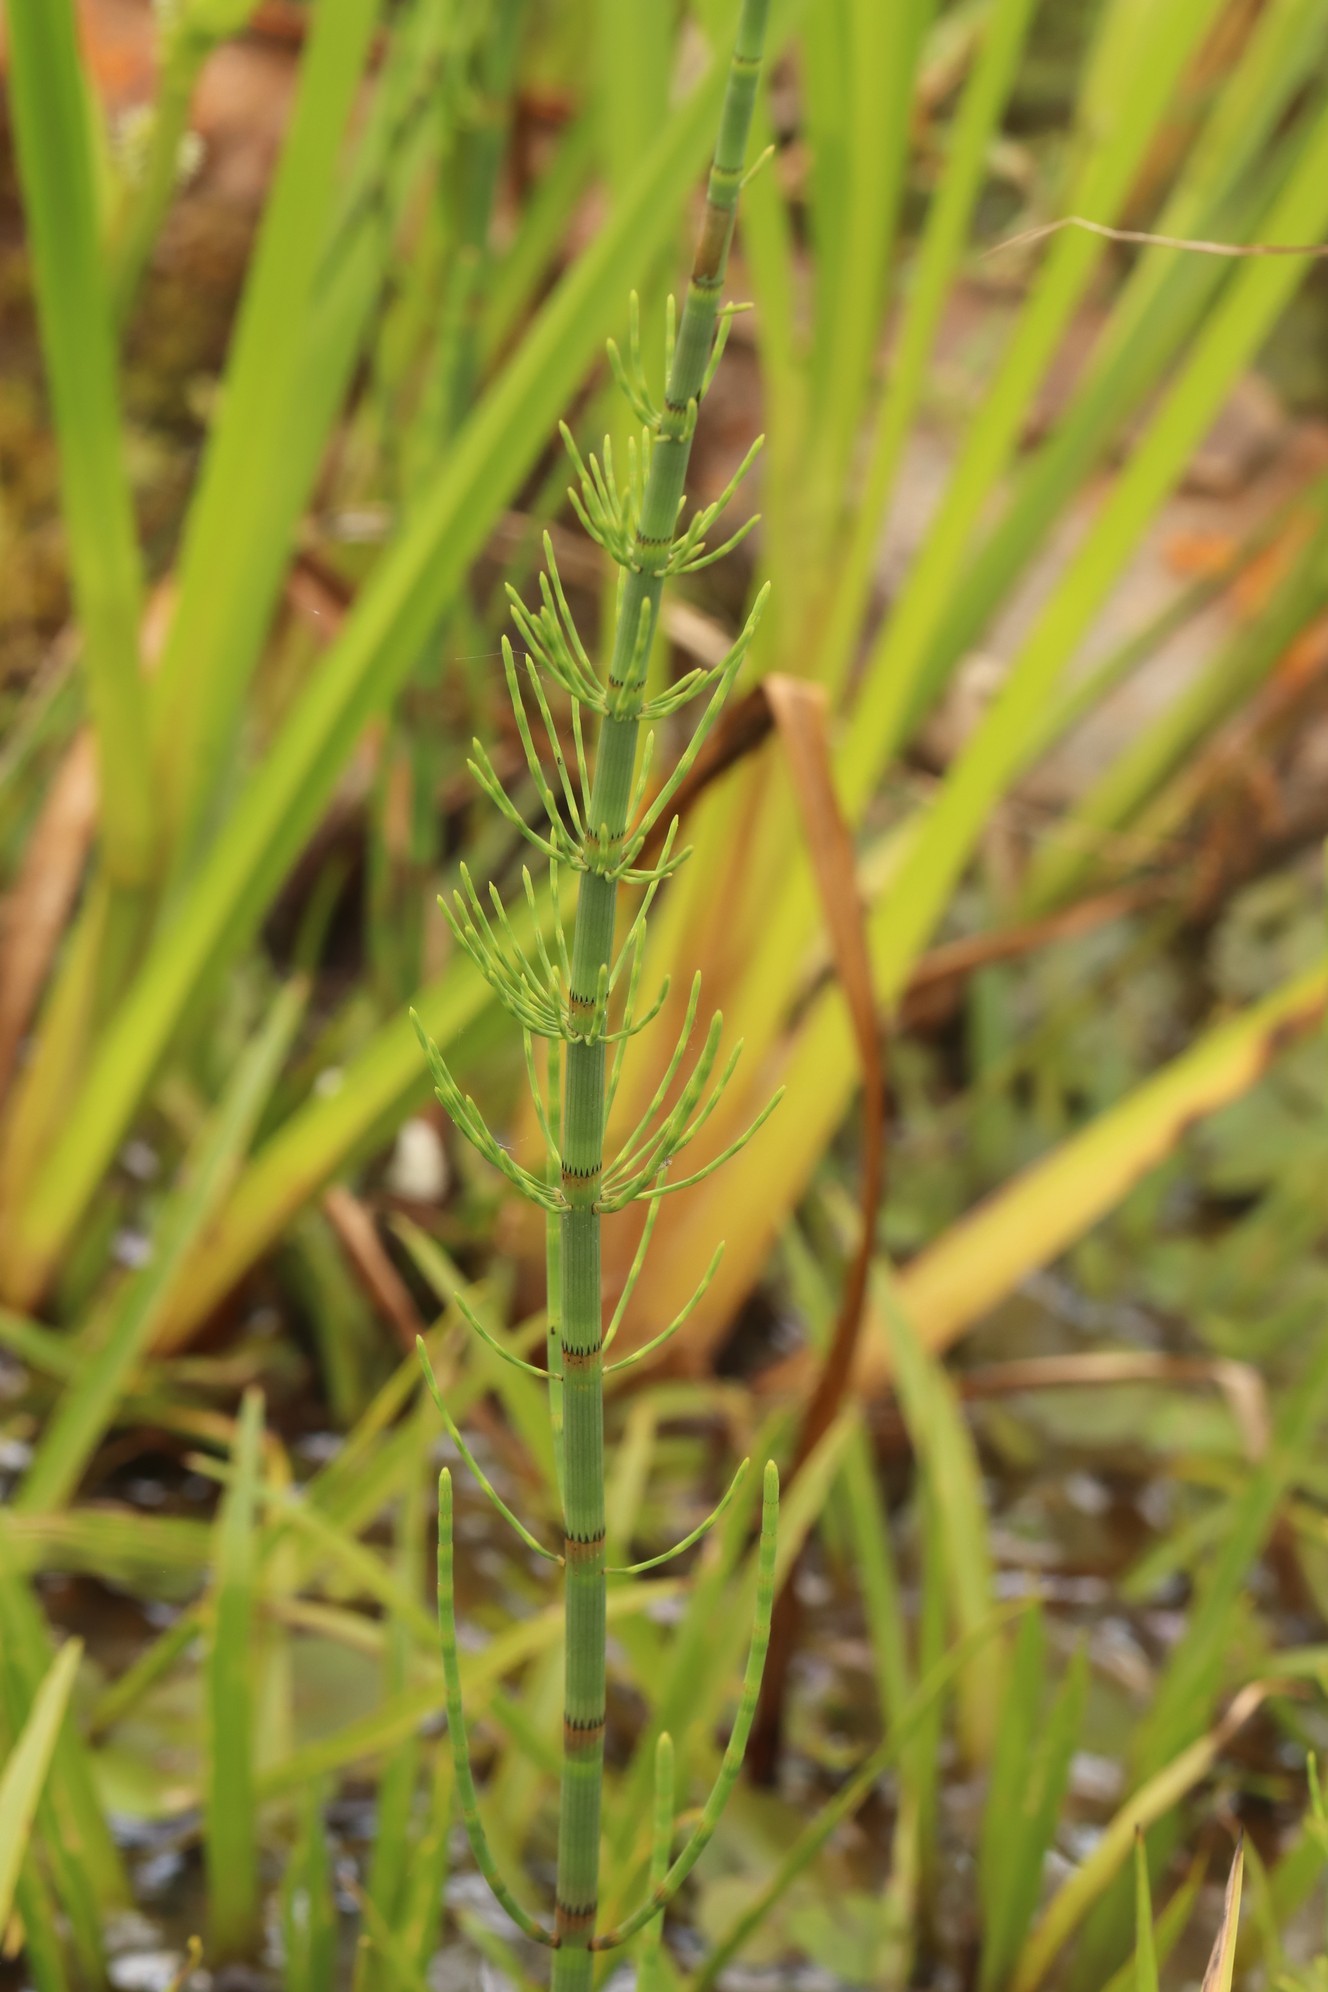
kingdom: Plantae
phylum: Tracheophyta
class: Polypodiopsida
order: Equisetales
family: Equisetaceae
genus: Equisetum
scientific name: Equisetum fluviatile
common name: Water horsetail
